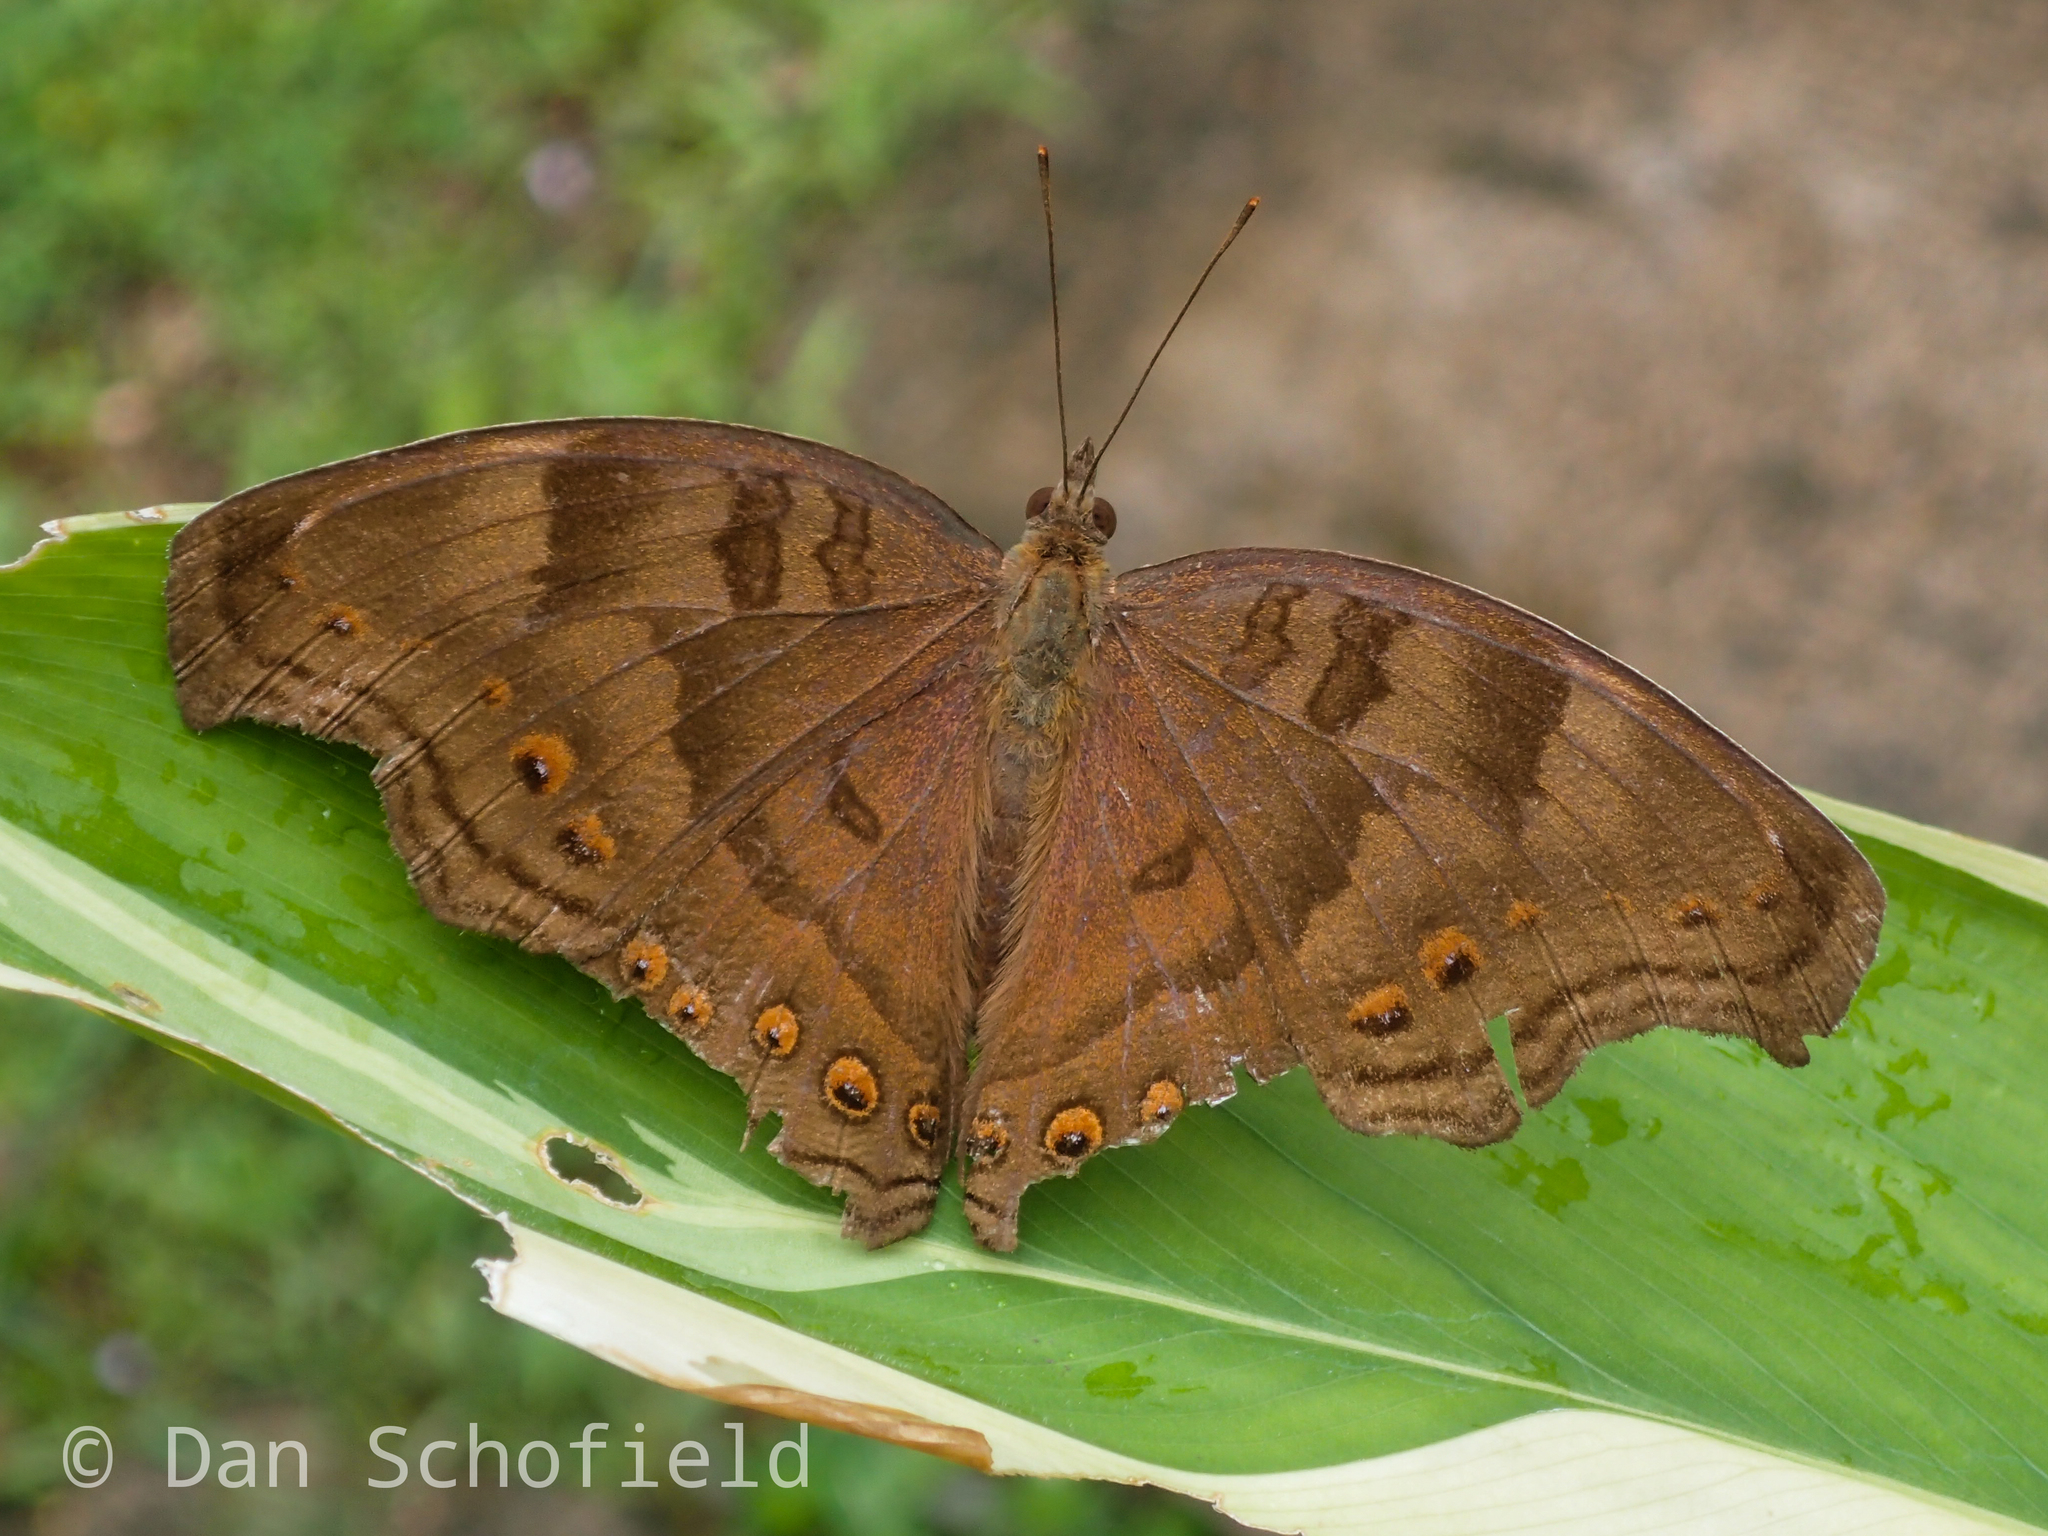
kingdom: Animalia
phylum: Arthropoda
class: Insecta
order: Lepidoptera
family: Nymphalidae
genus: Junonia
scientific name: Junonia
